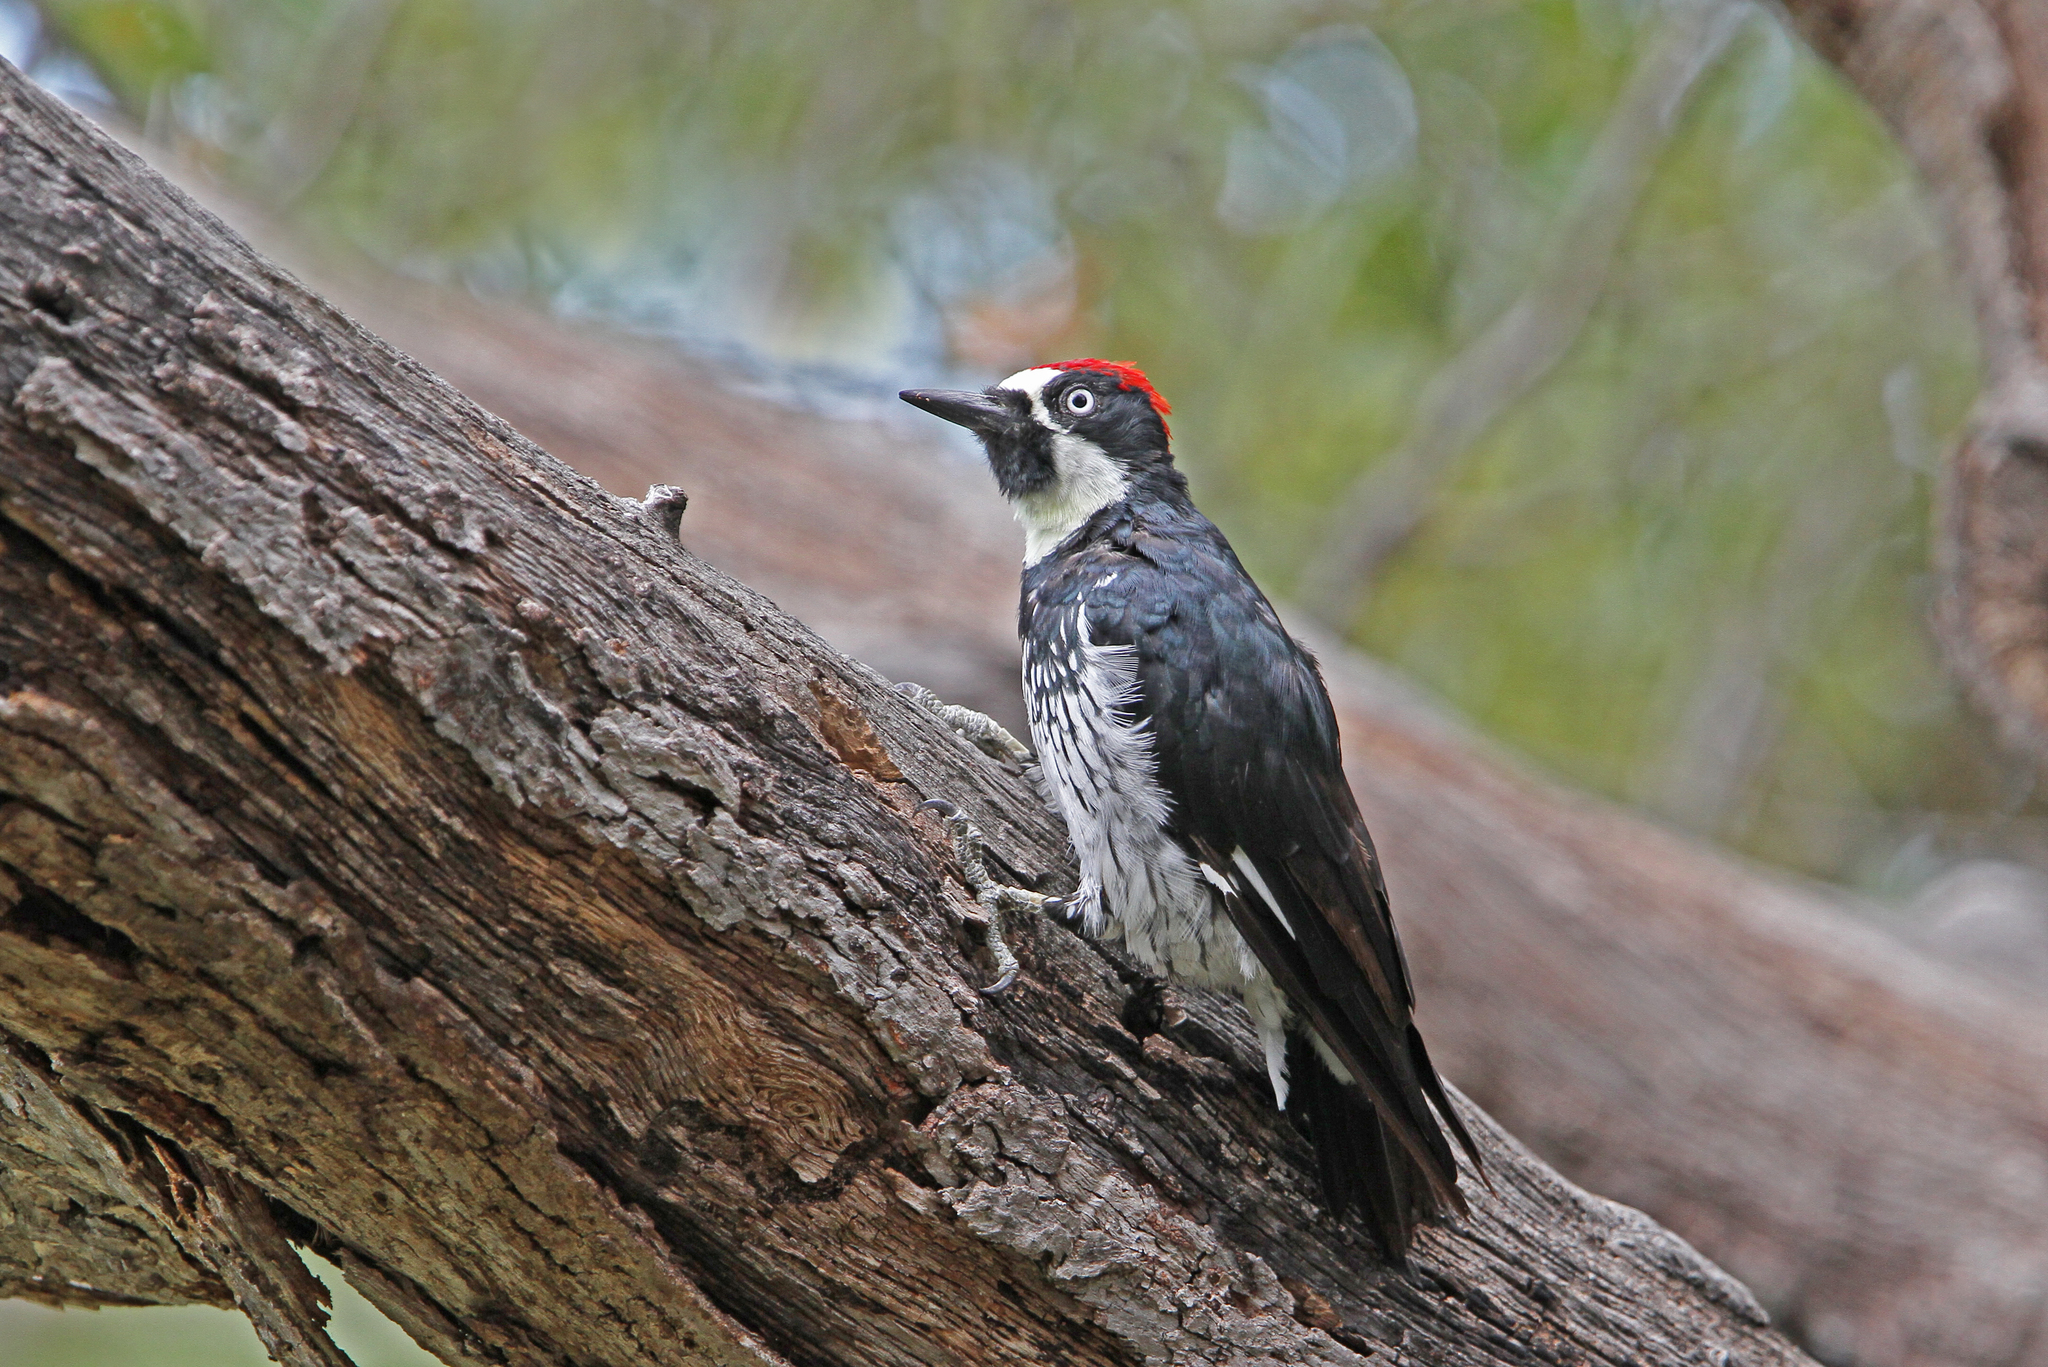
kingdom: Animalia
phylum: Chordata
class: Aves
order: Piciformes
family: Picidae
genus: Melanerpes
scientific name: Melanerpes formicivorus
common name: Acorn woodpecker
